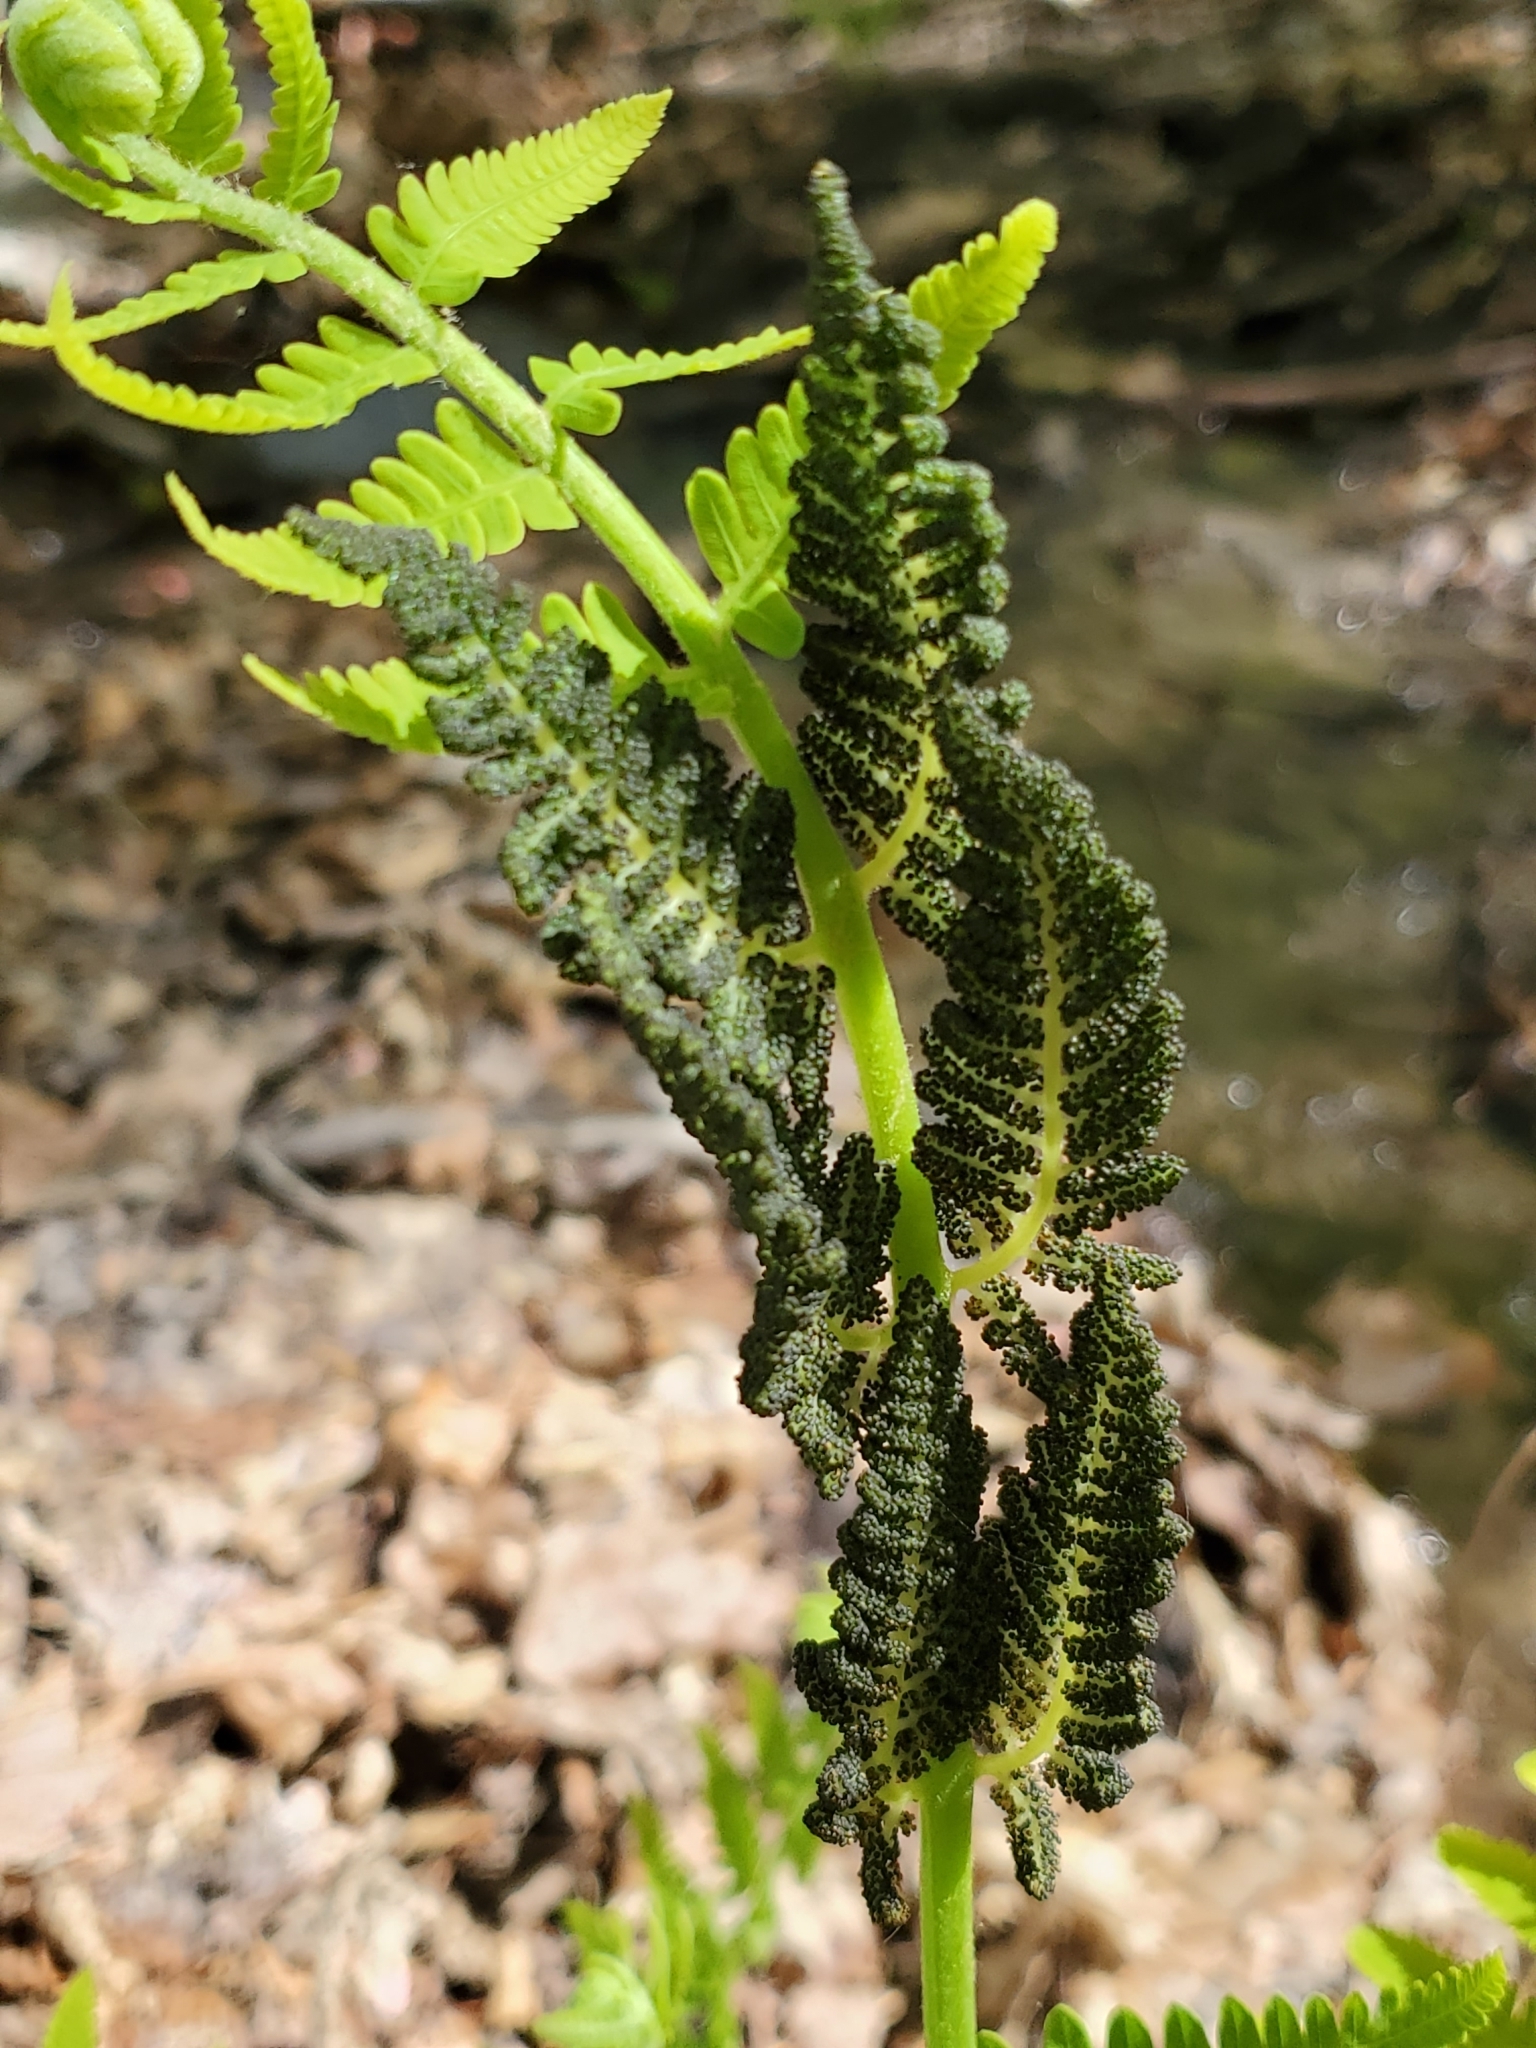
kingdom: Plantae
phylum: Tracheophyta
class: Polypodiopsida
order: Osmundales
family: Osmundaceae
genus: Claytosmunda
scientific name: Claytosmunda claytoniana
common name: Clayton's fern
